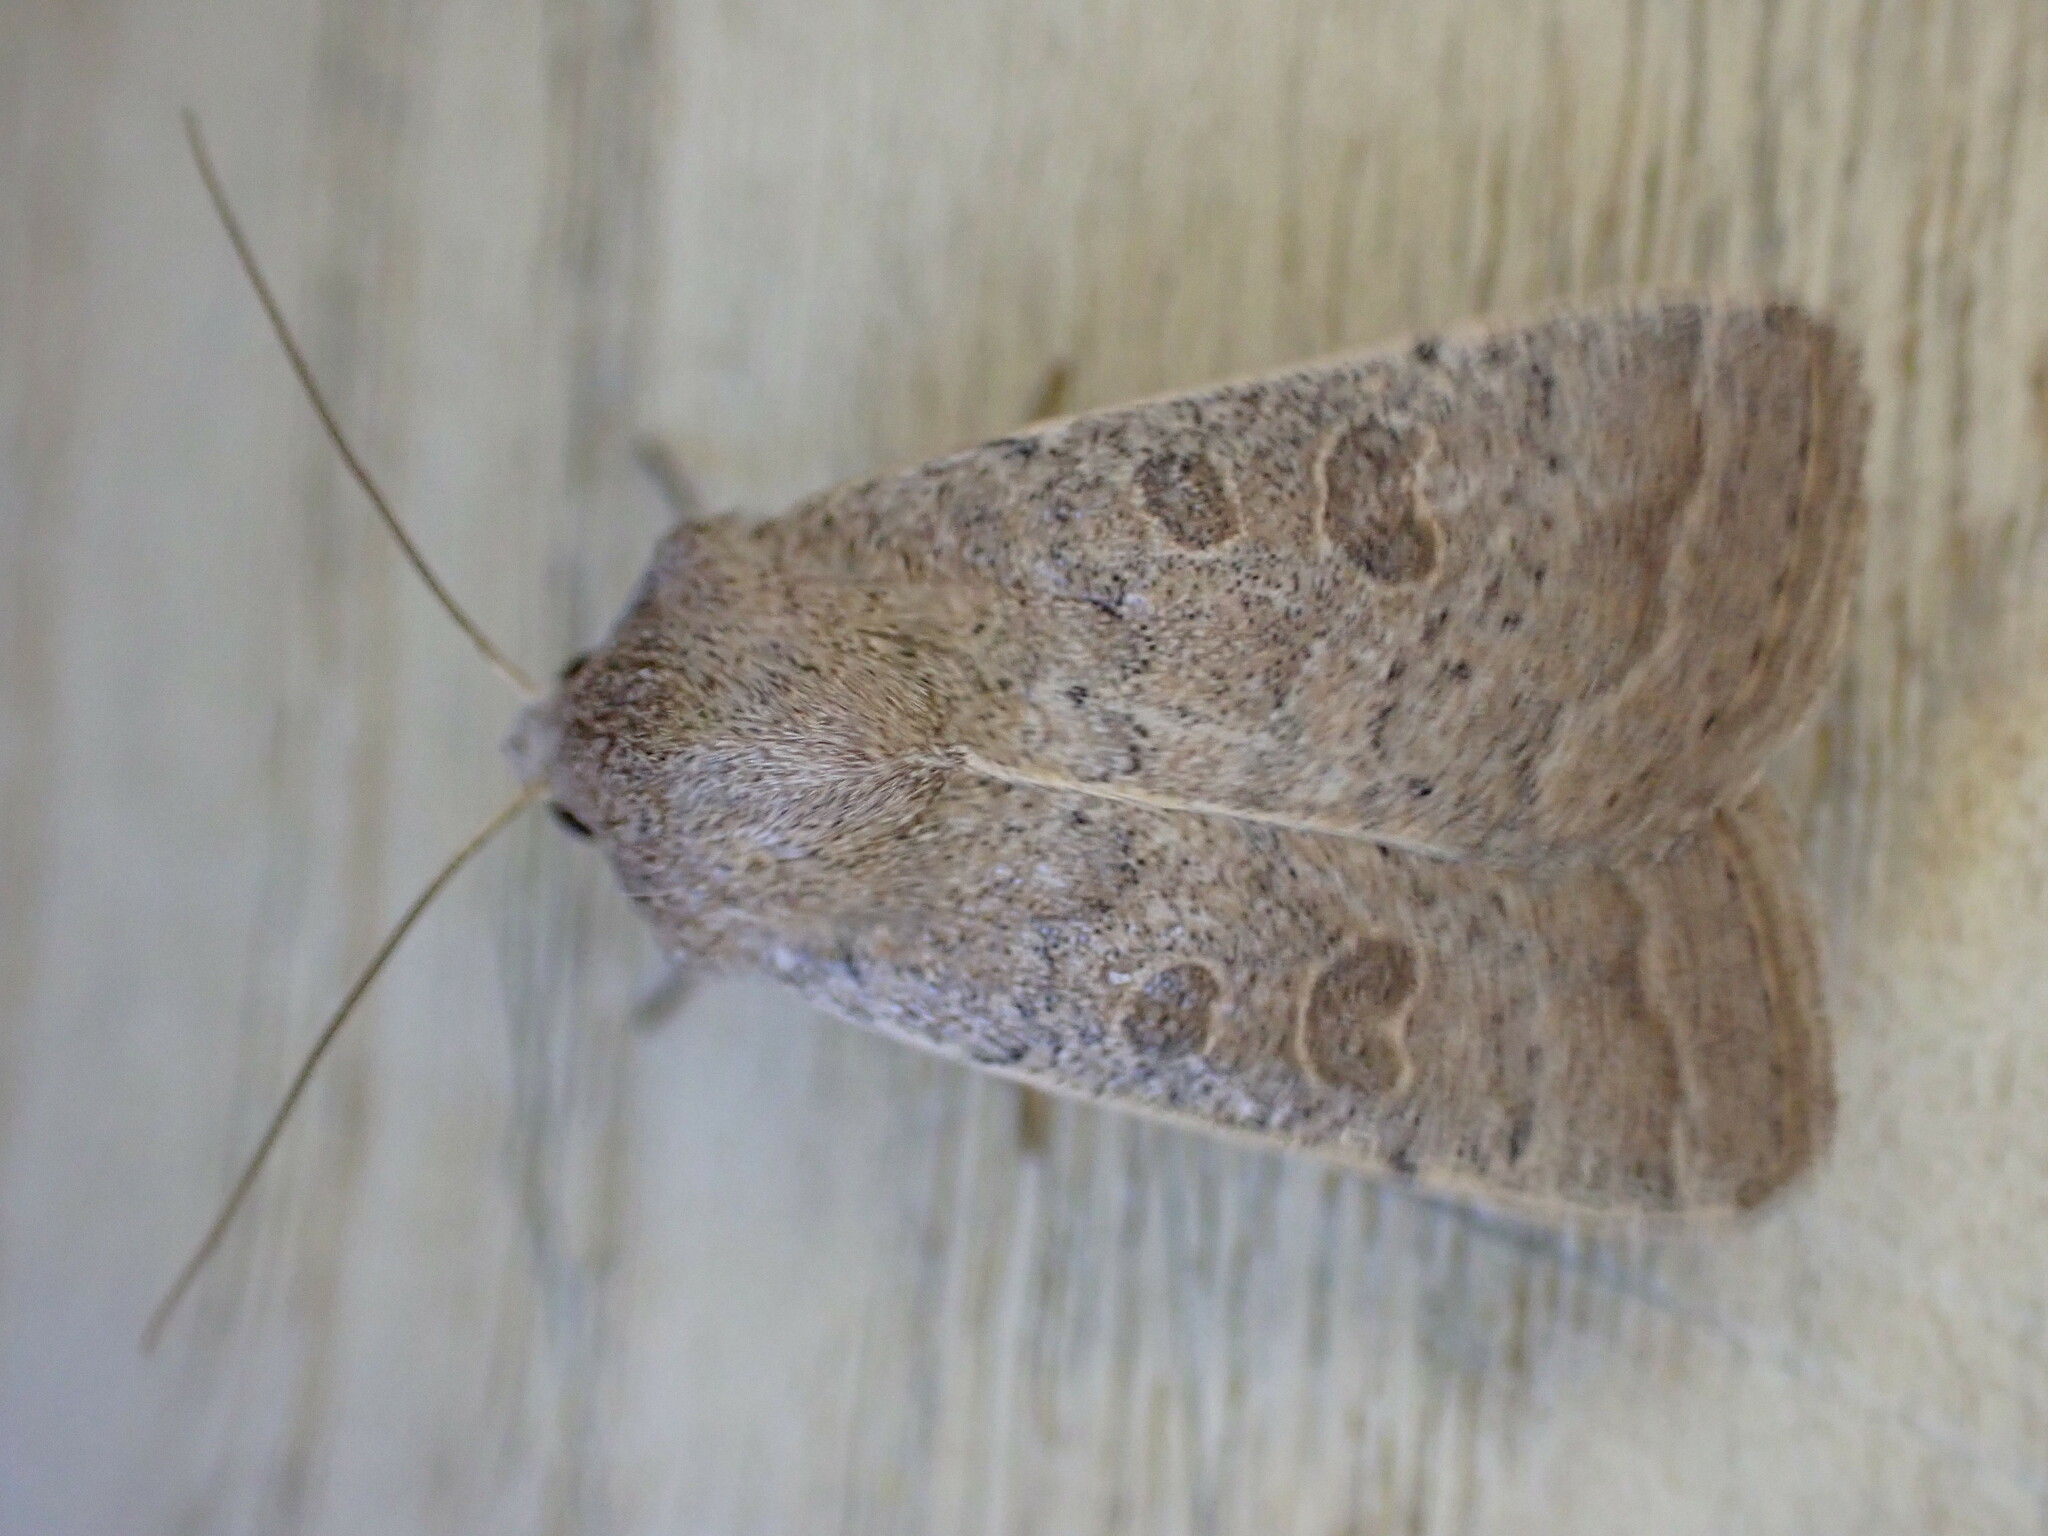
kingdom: Animalia
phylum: Arthropoda
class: Insecta
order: Lepidoptera
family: Noctuidae
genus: Hoplodrina
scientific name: Hoplodrina ambigua
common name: Vine's rustic
